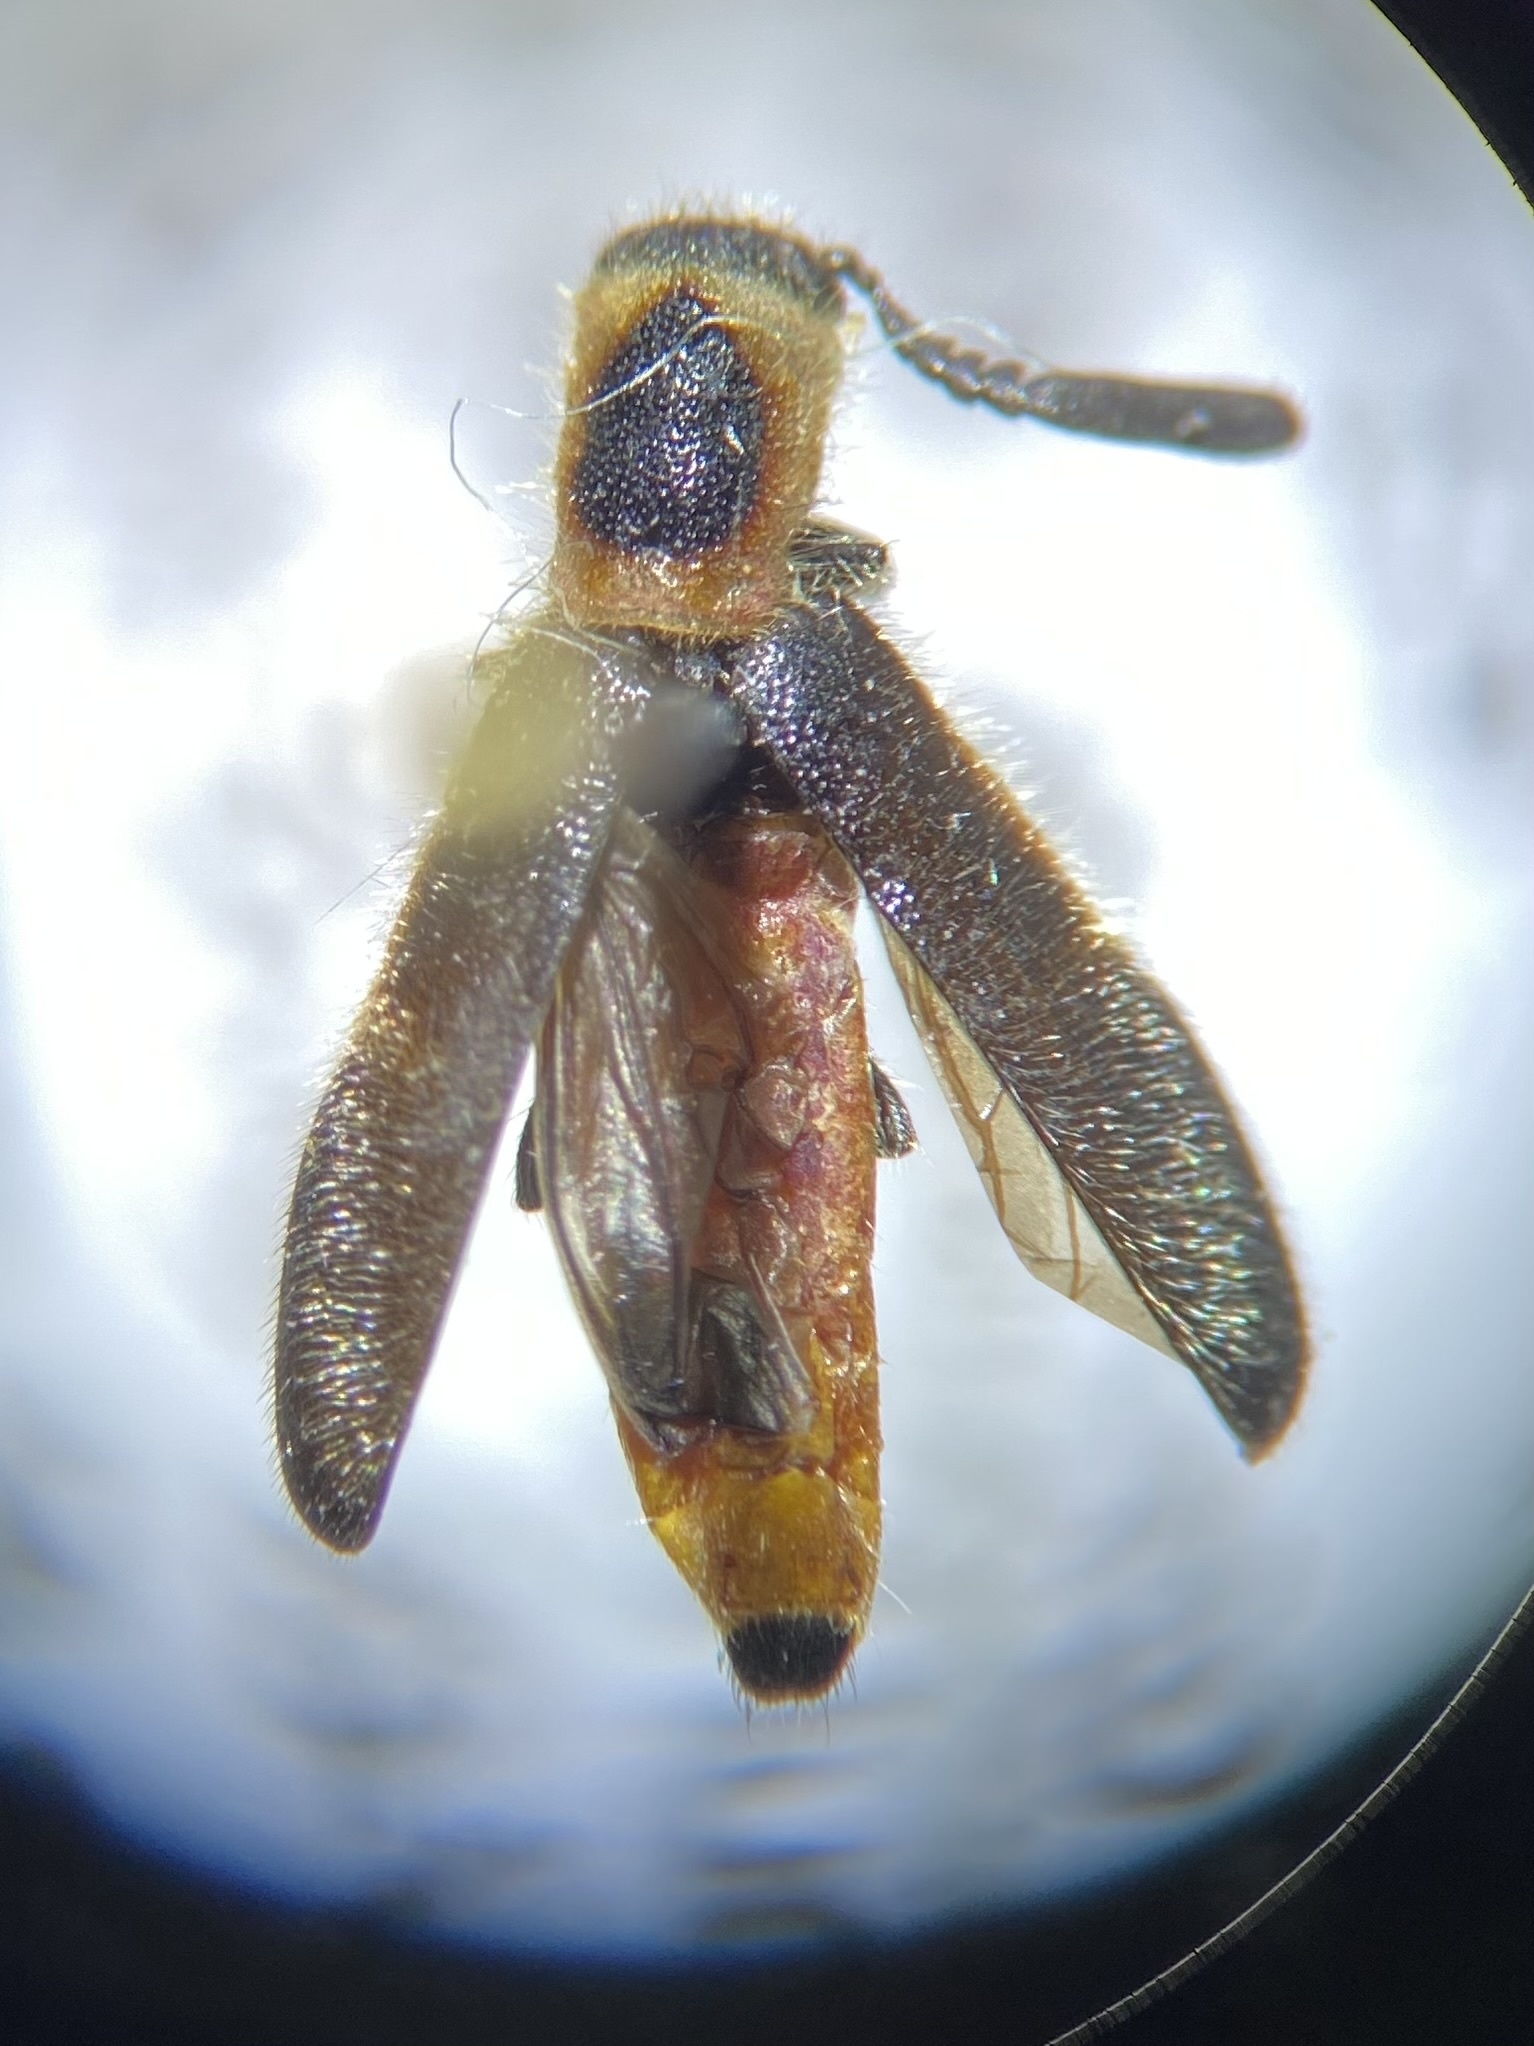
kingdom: Animalia
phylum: Arthropoda
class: Insecta
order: Coleoptera
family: Cleridae
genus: Monophylla
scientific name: Monophylla terminata
